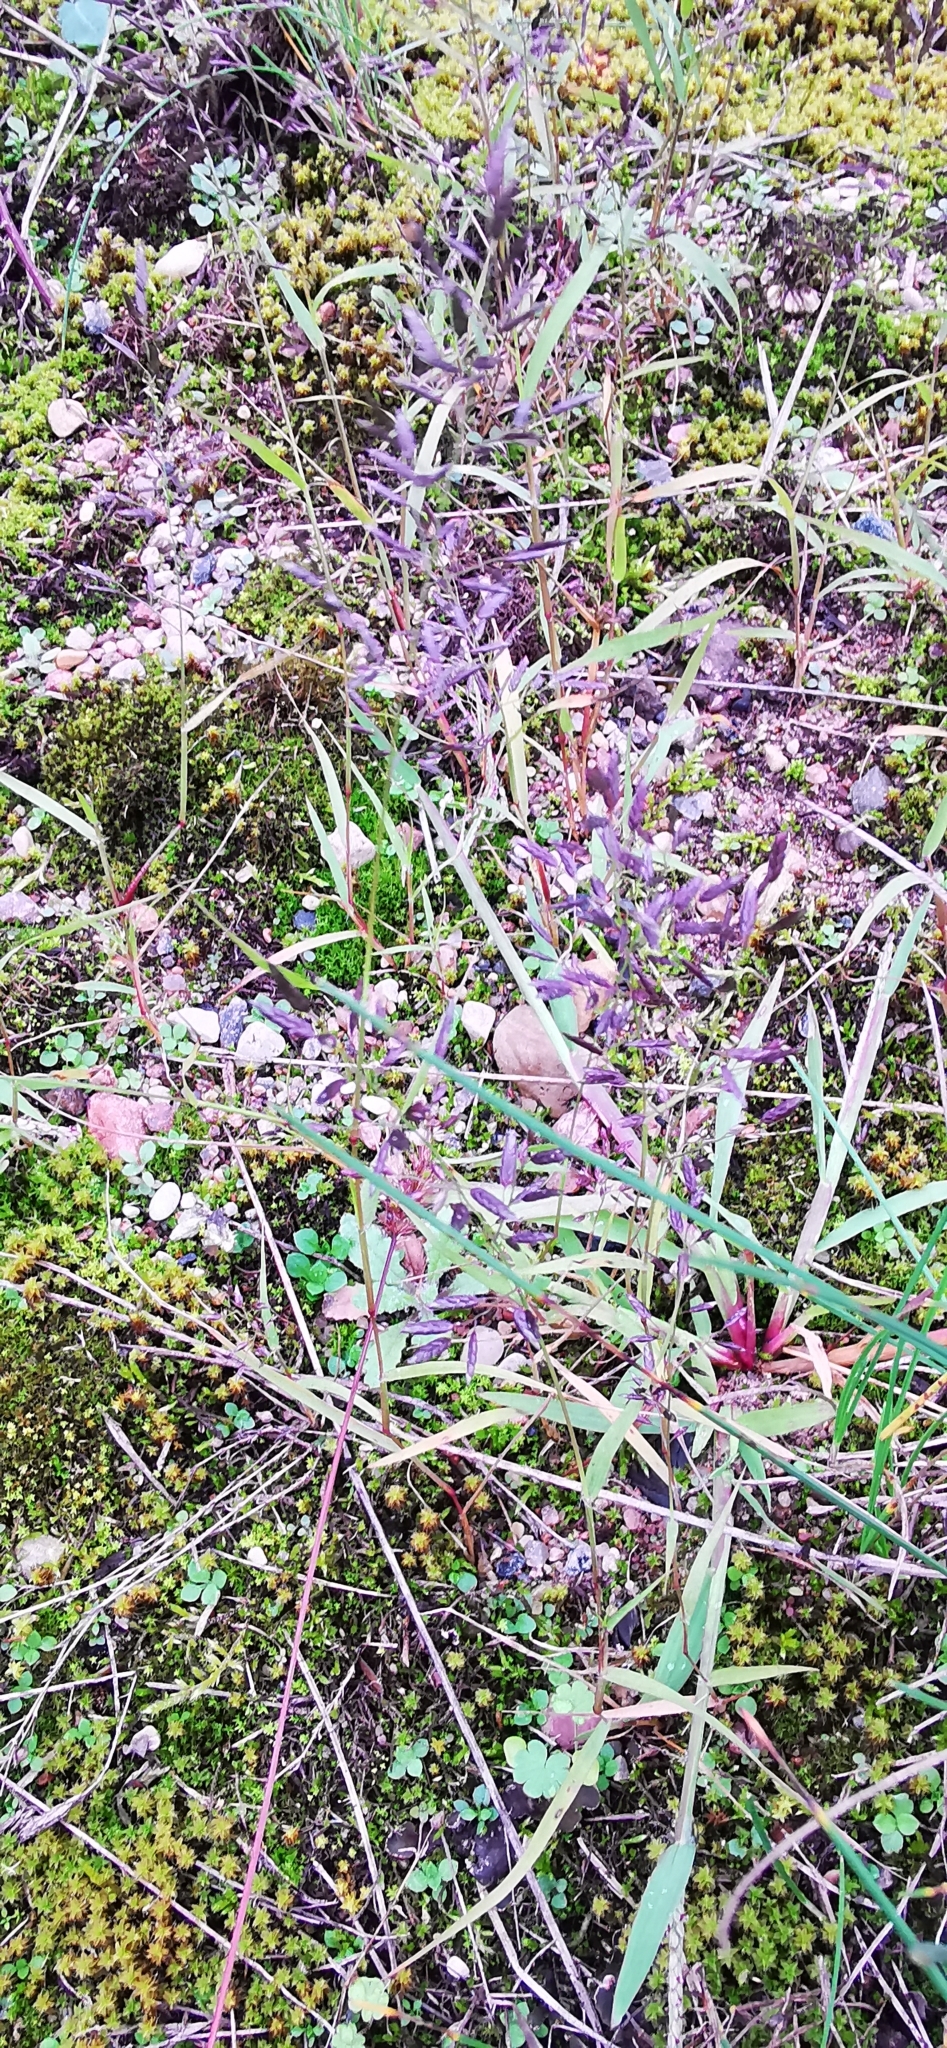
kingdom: Plantae
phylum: Tracheophyta
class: Liliopsida
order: Poales
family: Poaceae
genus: Eragrostis
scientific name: Eragrostis minor
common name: Small love-grass
